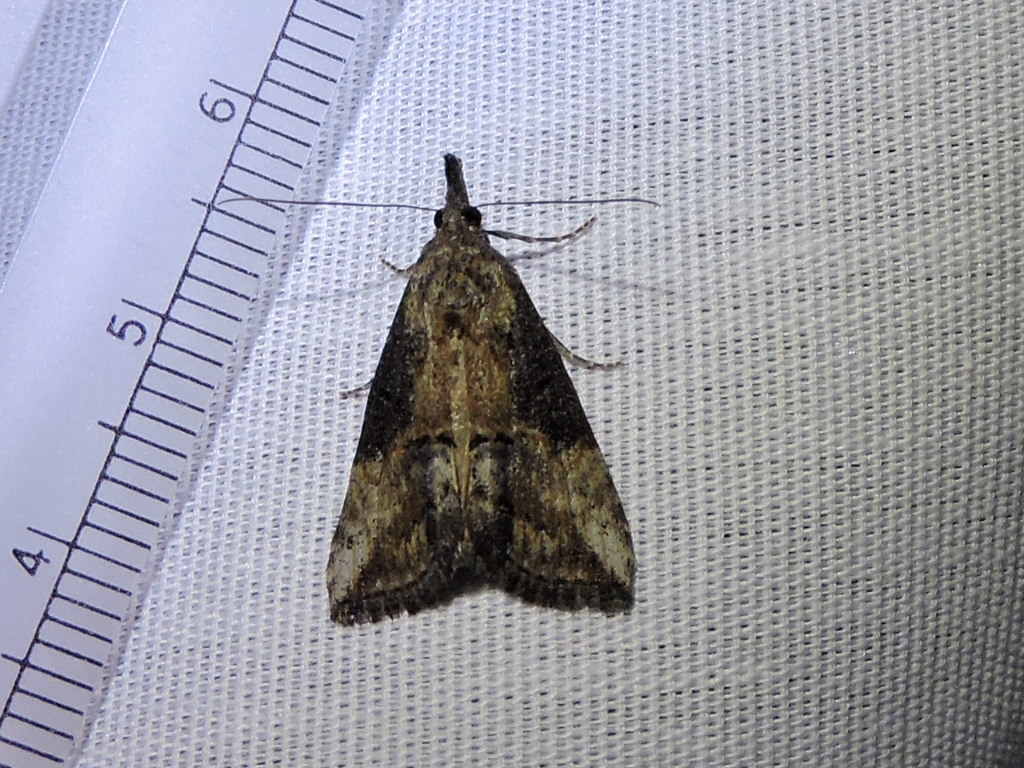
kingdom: Animalia
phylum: Arthropoda
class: Insecta
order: Lepidoptera
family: Erebidae
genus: Hypena
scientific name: Hypena scabra
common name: Green cloverworm
